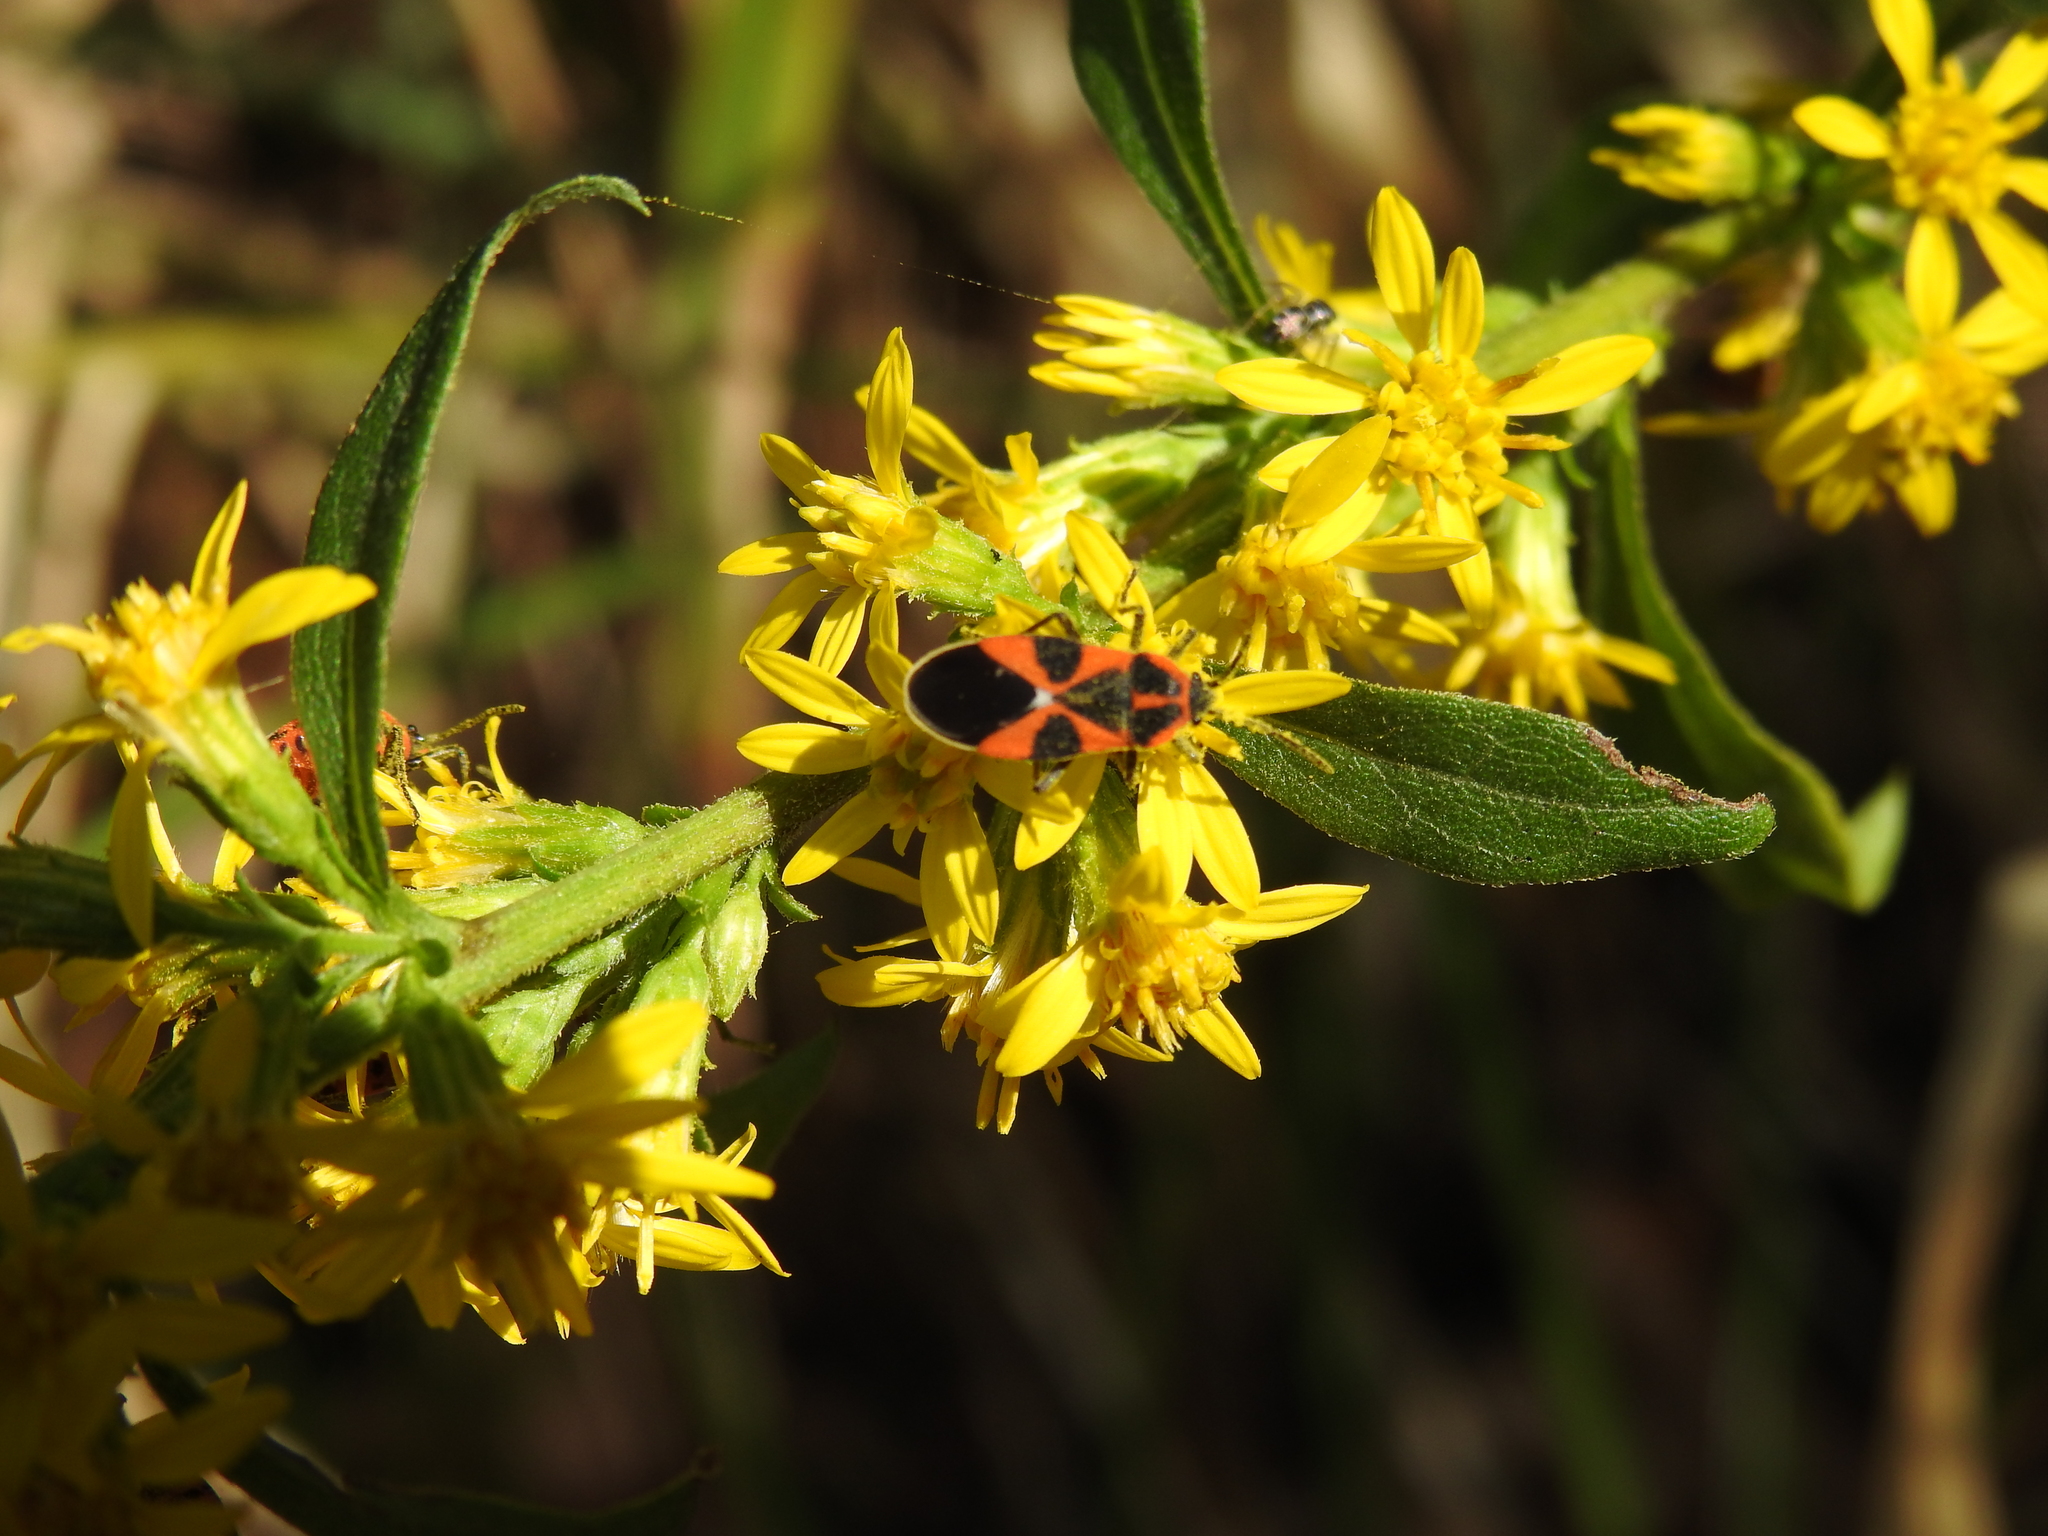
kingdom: Animalia
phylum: Arthropoda
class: Insecta
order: Hemiptera
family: Lygaeidae
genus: Tropidothorax
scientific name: Tropidothorax leucopterus
